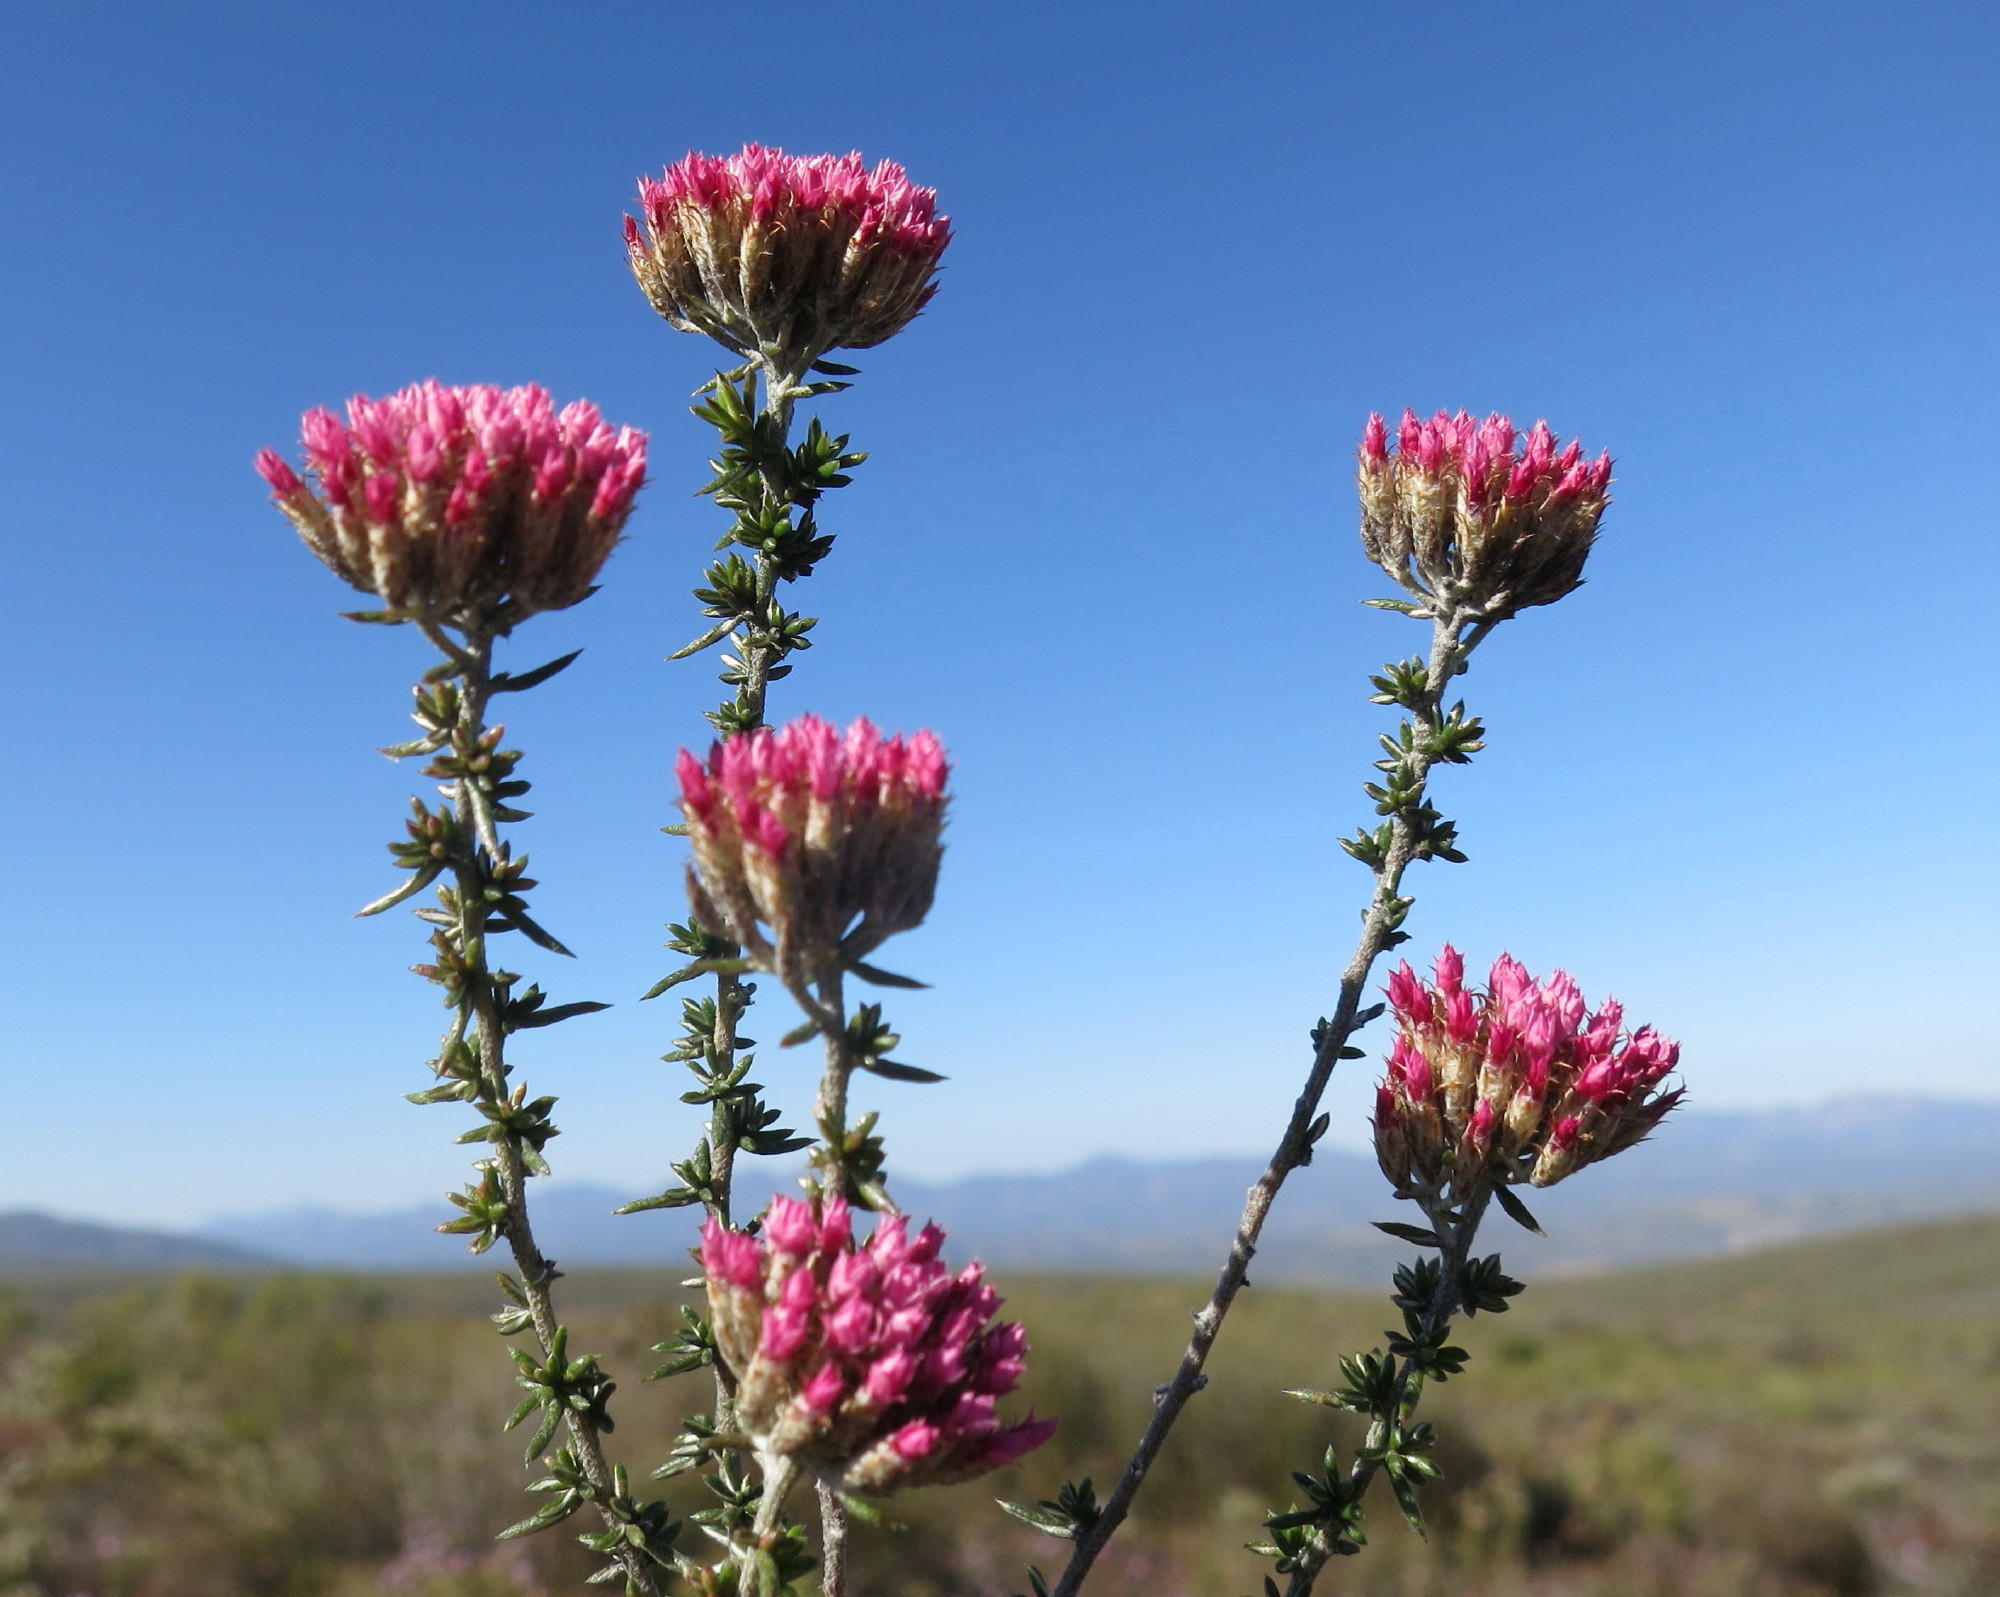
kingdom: Plantae
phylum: Tracheophyta
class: Magnoliopsida
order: Asterales
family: Asteraceae
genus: Metalasia
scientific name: Metalasia massonii
